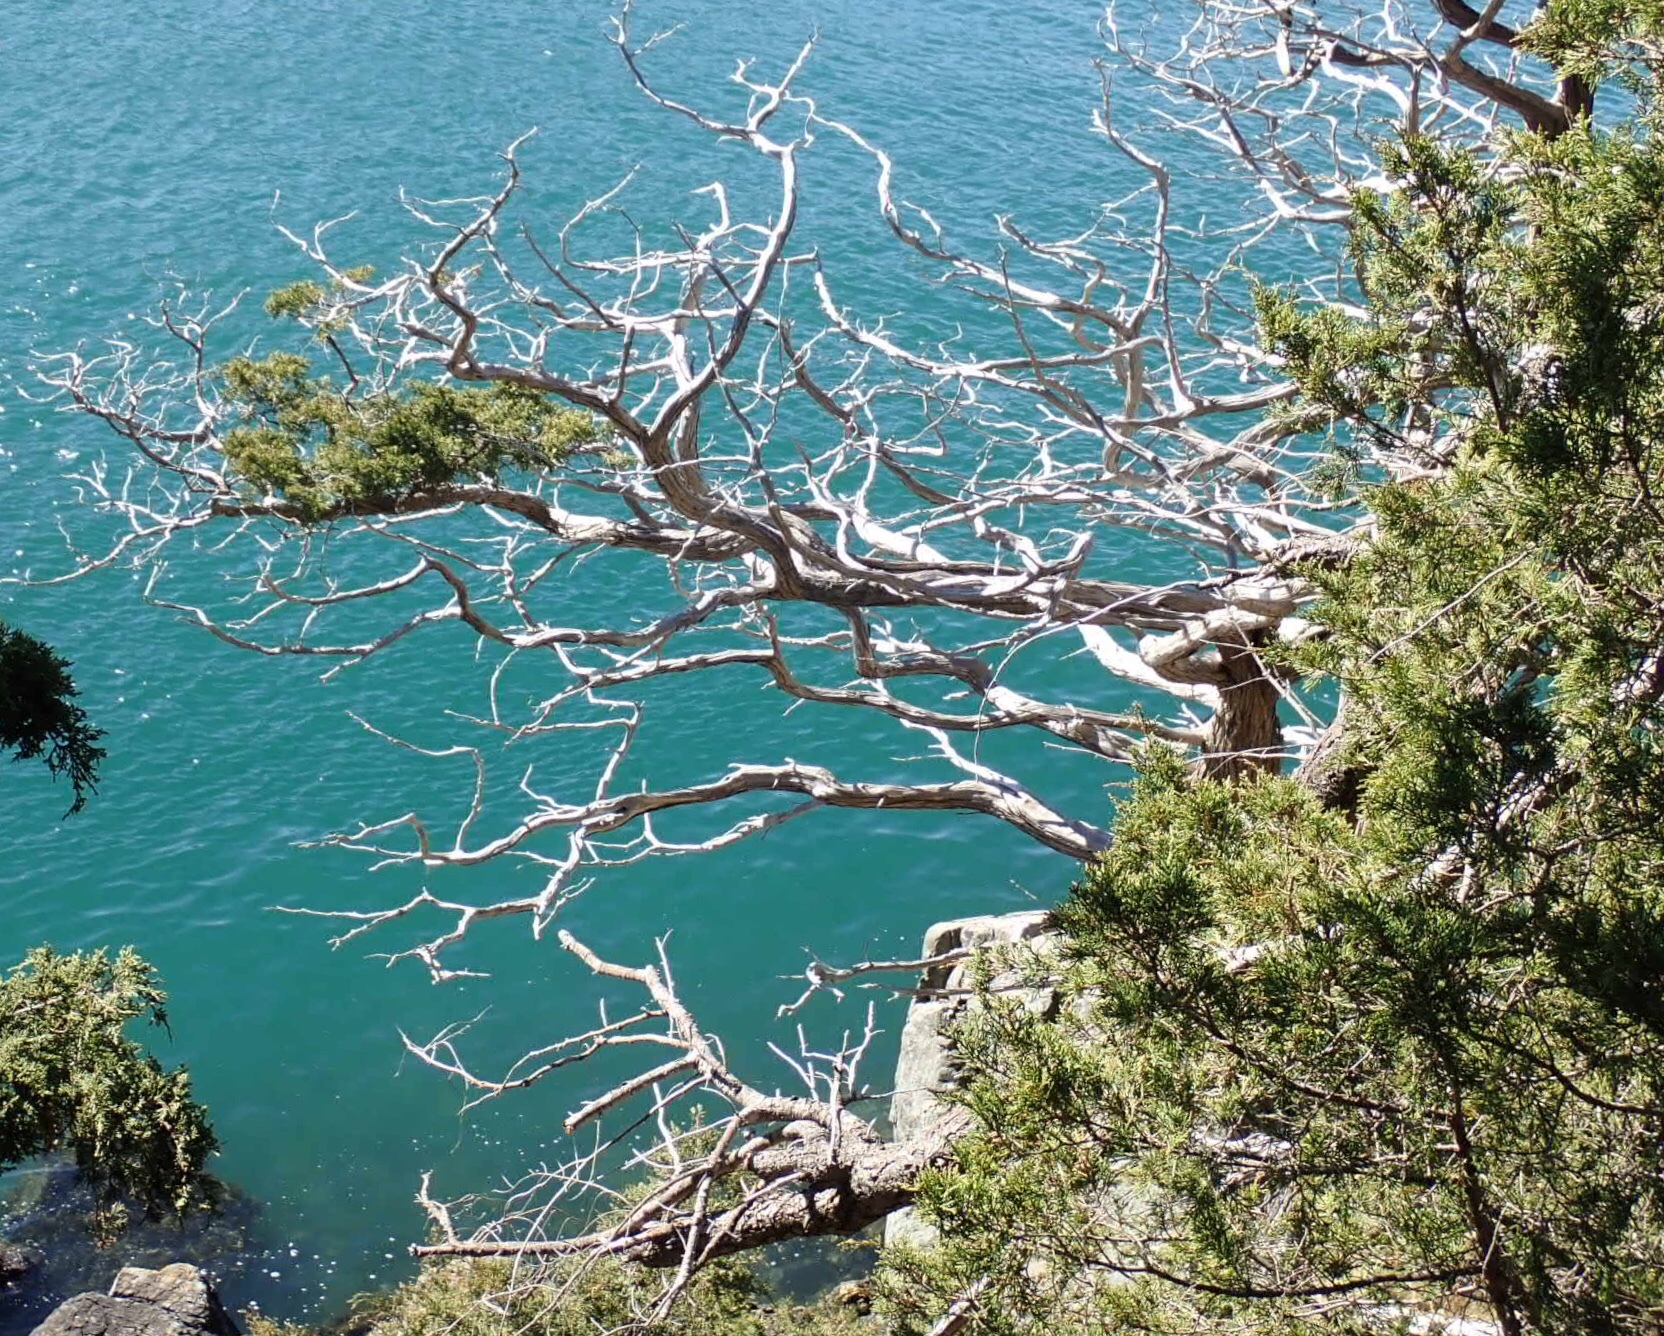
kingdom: Plantae
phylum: Tracheophyta
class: Pinopsida
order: Pinales
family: Cupressaceae
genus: Juniperus
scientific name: Juniperus scopulorum
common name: Rocky mountain juniper
